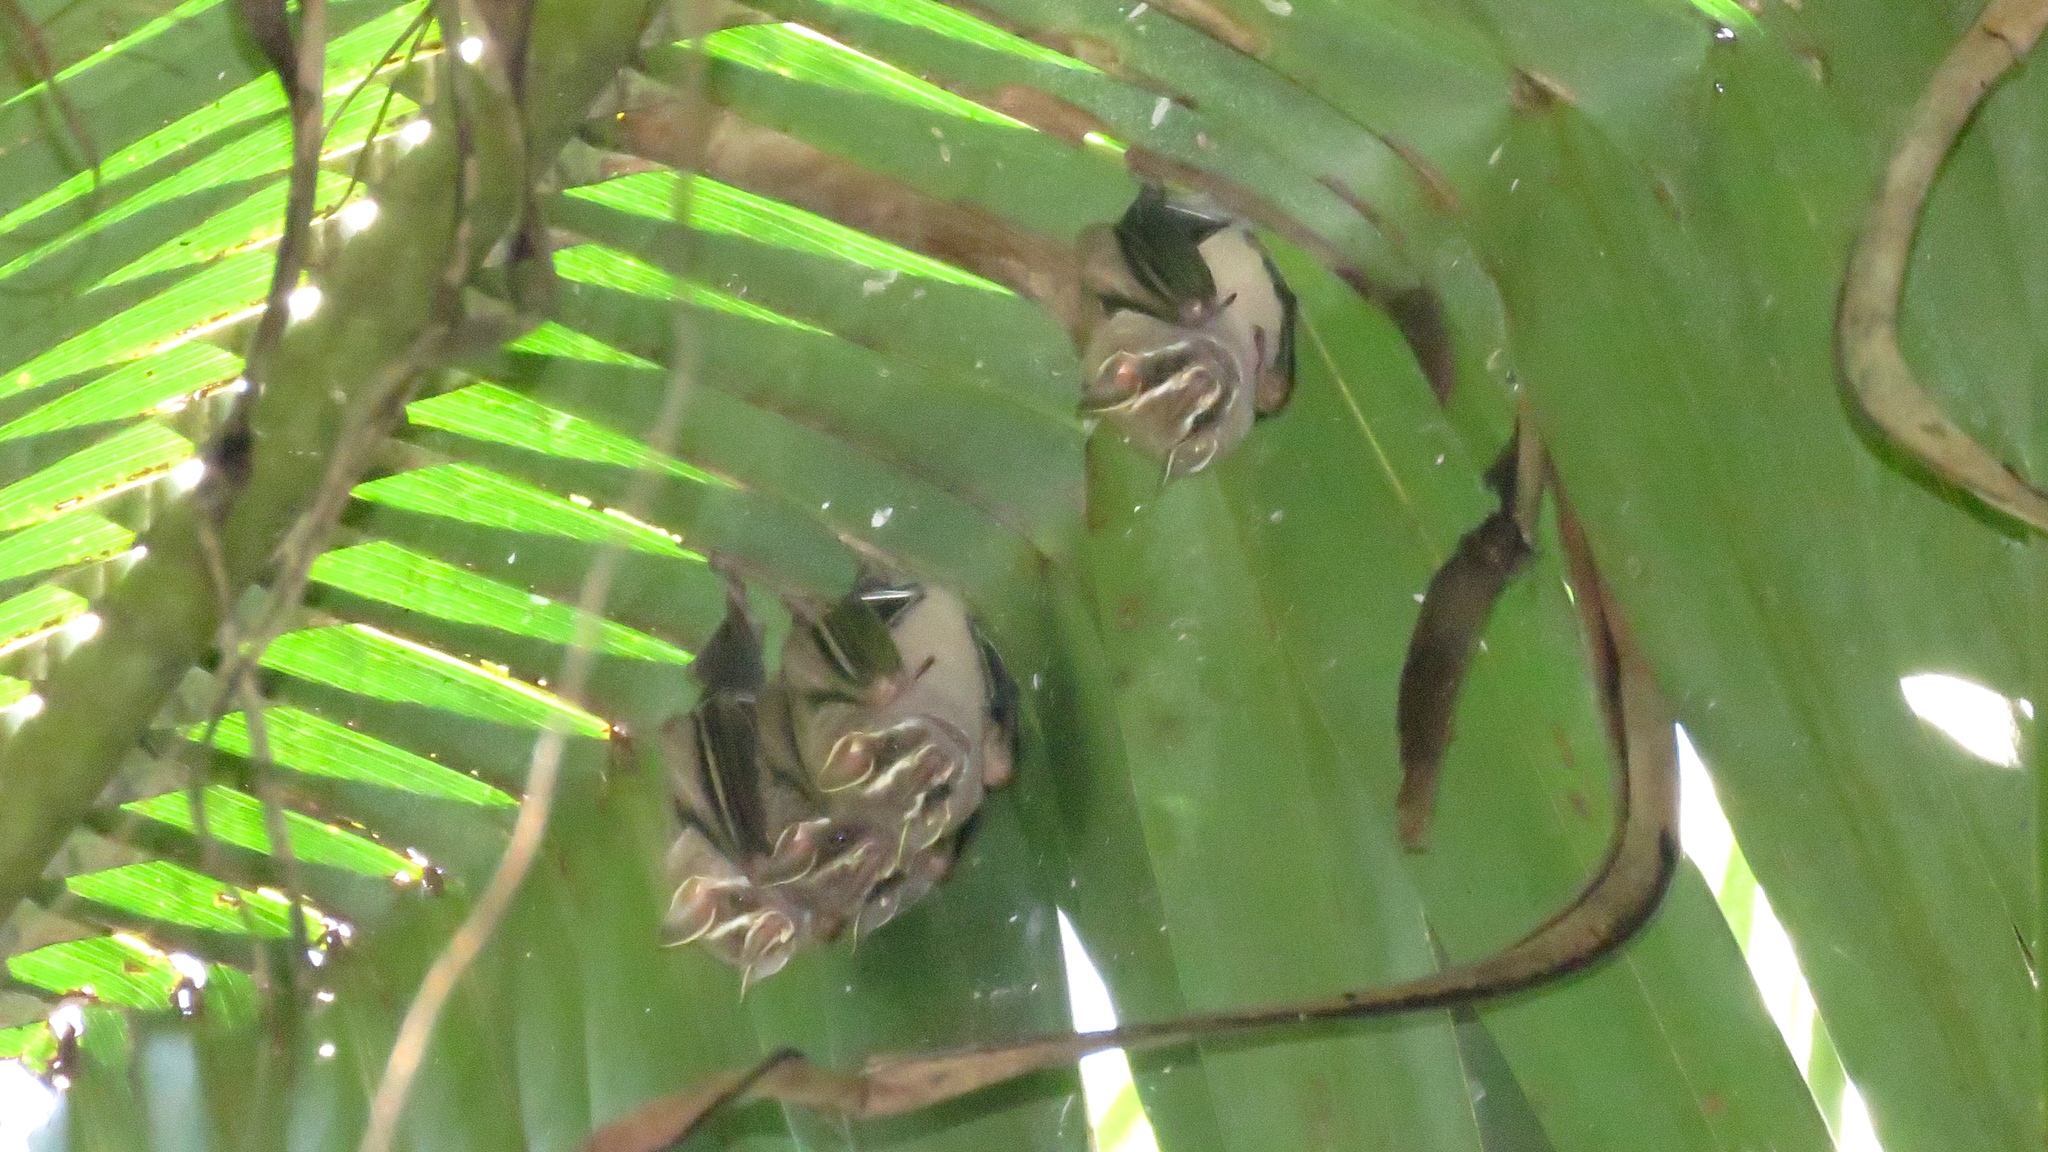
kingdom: Animalia
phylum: Chordata
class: Mammalia
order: Chiroptera
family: Phyllostomidae
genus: Uroderma
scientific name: Uroderma bilobatum
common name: Common tent-making bat
